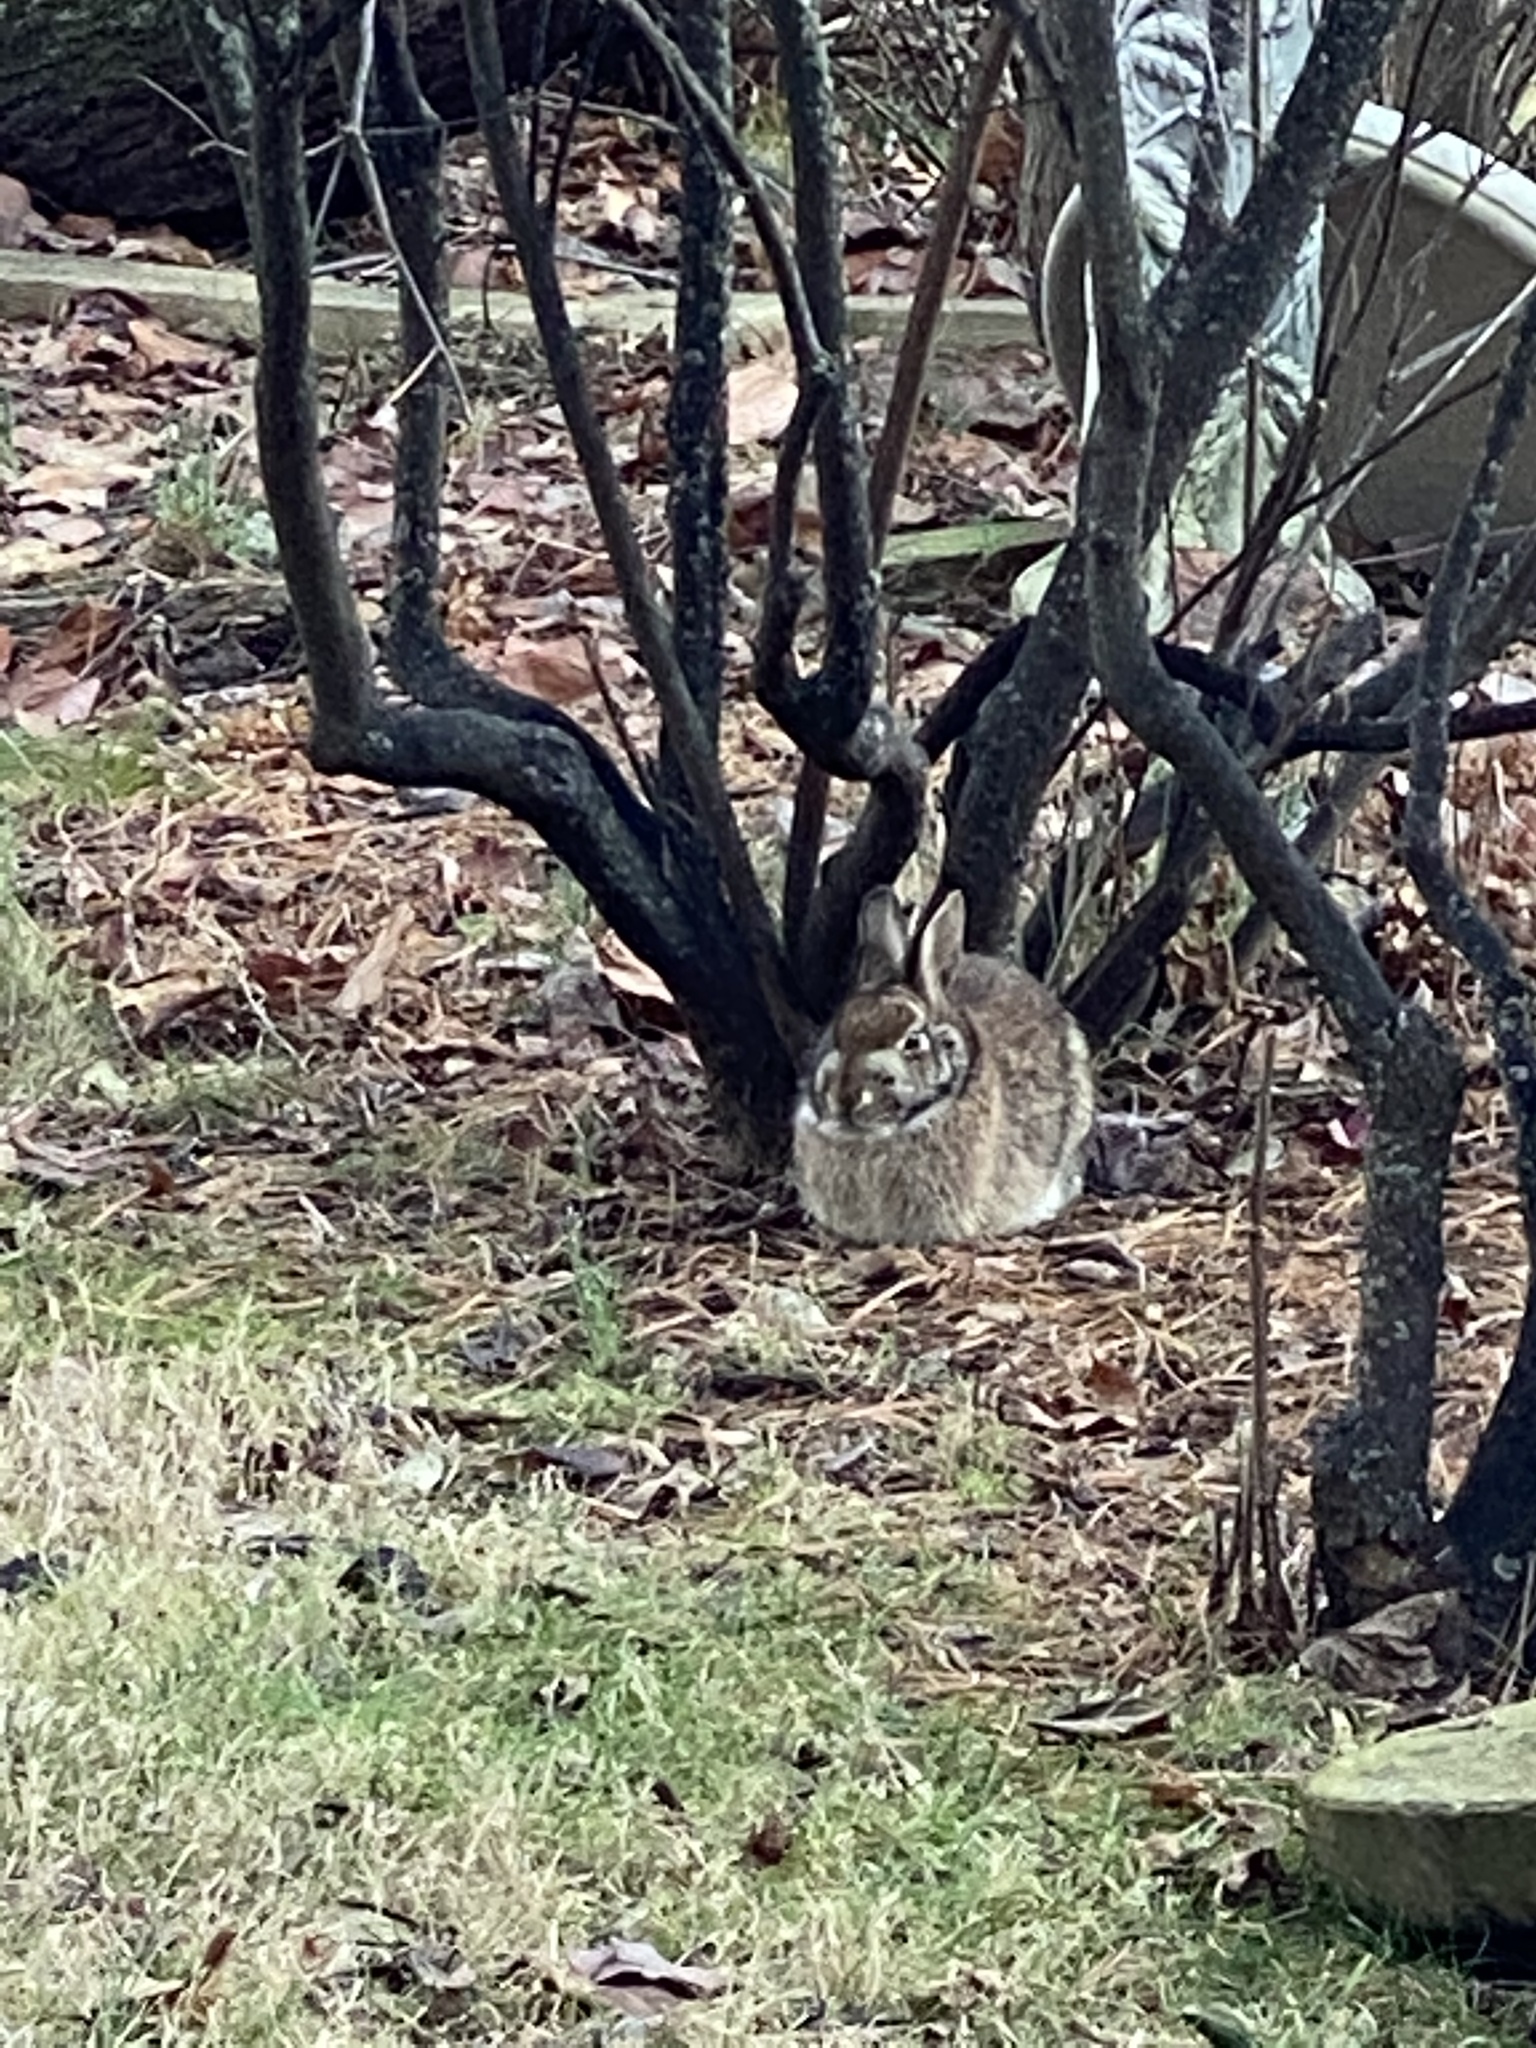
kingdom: Animalia
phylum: Chordata
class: Mammalia
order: Lagomorpha
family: Leporidae
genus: Sylvilagus
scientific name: Sylvilagus floridanus
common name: Eastern cottontail
